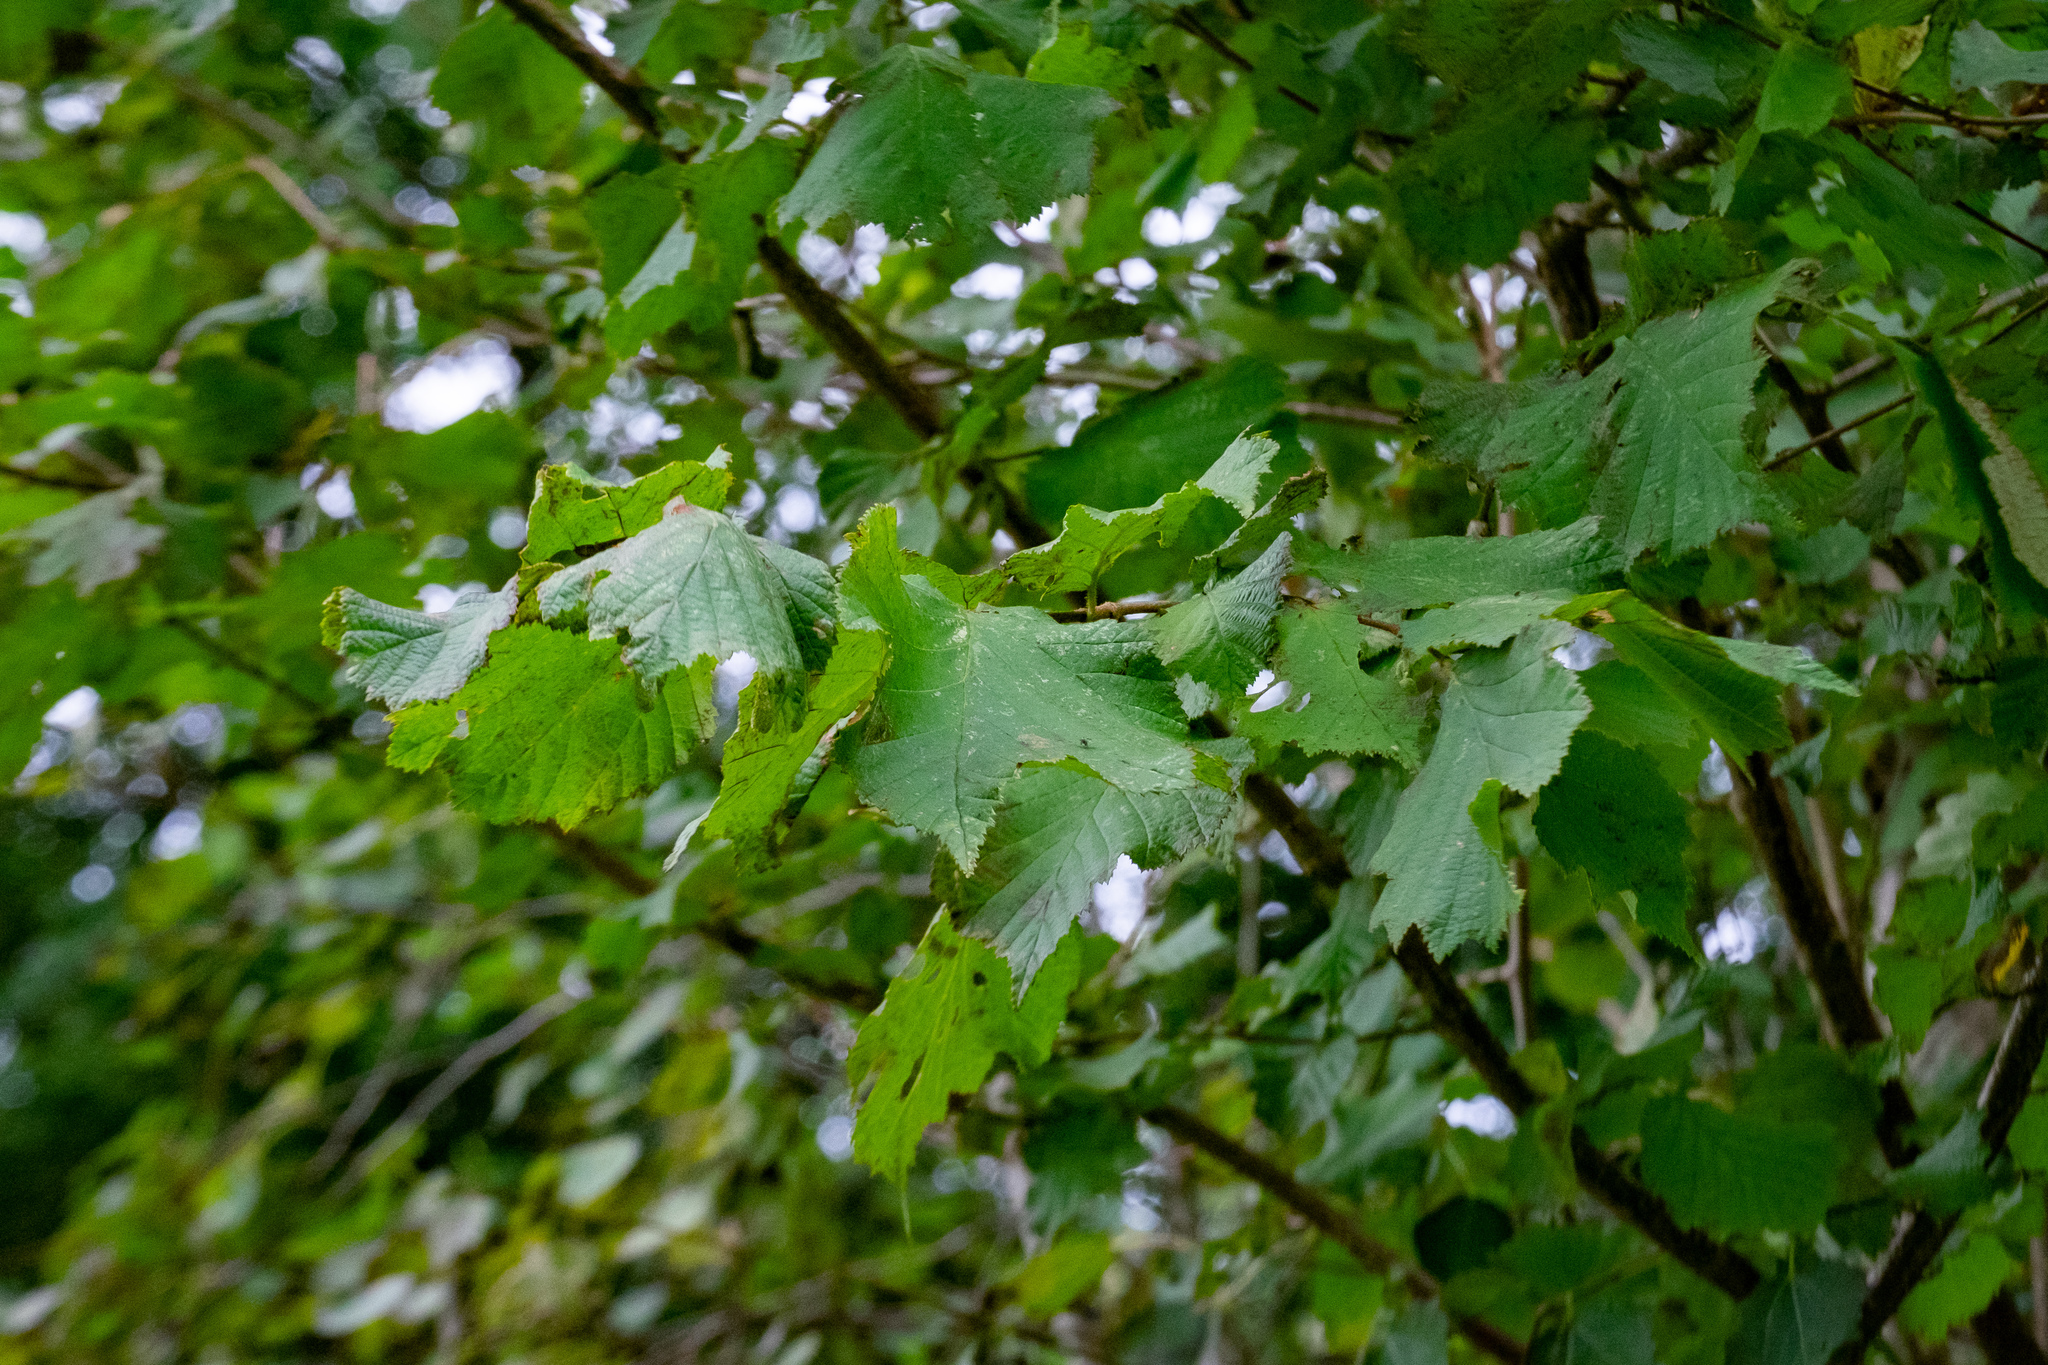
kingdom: Plantae
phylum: Tracheophyta
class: Magnoliopsida
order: Fagales
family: Betulaceae
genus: Corylus
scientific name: Corylus avellana
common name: European hazel
